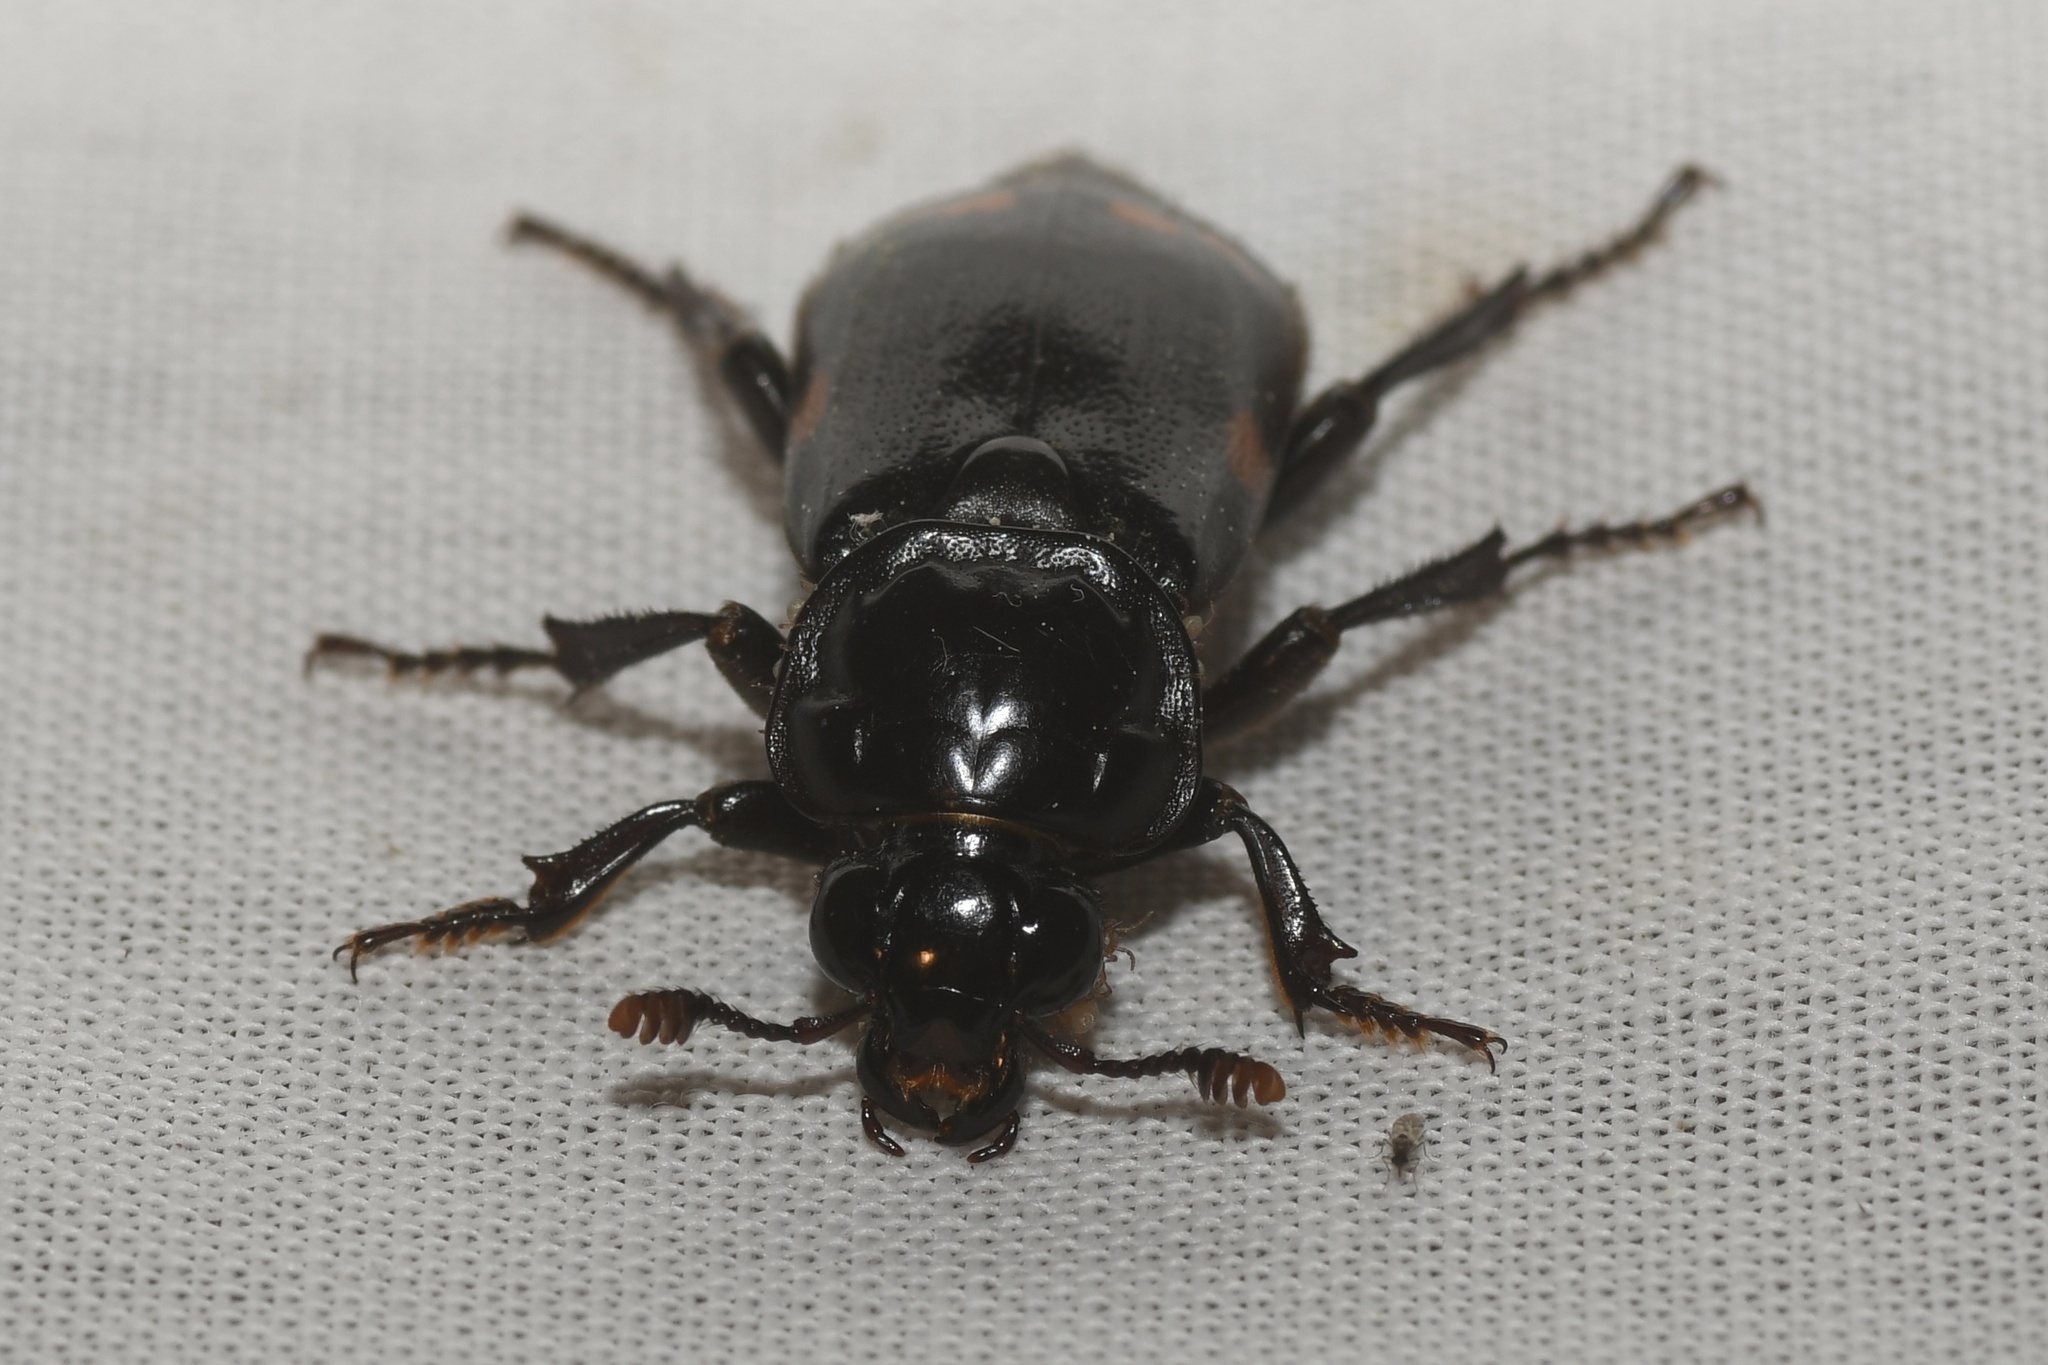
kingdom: Animalia
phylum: Arthropoda
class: Insecta
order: Coleoptera
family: Staphylinidae
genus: Nicrophorus
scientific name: Nicrophorus pustulatus
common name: Pustulated carrion beetle
